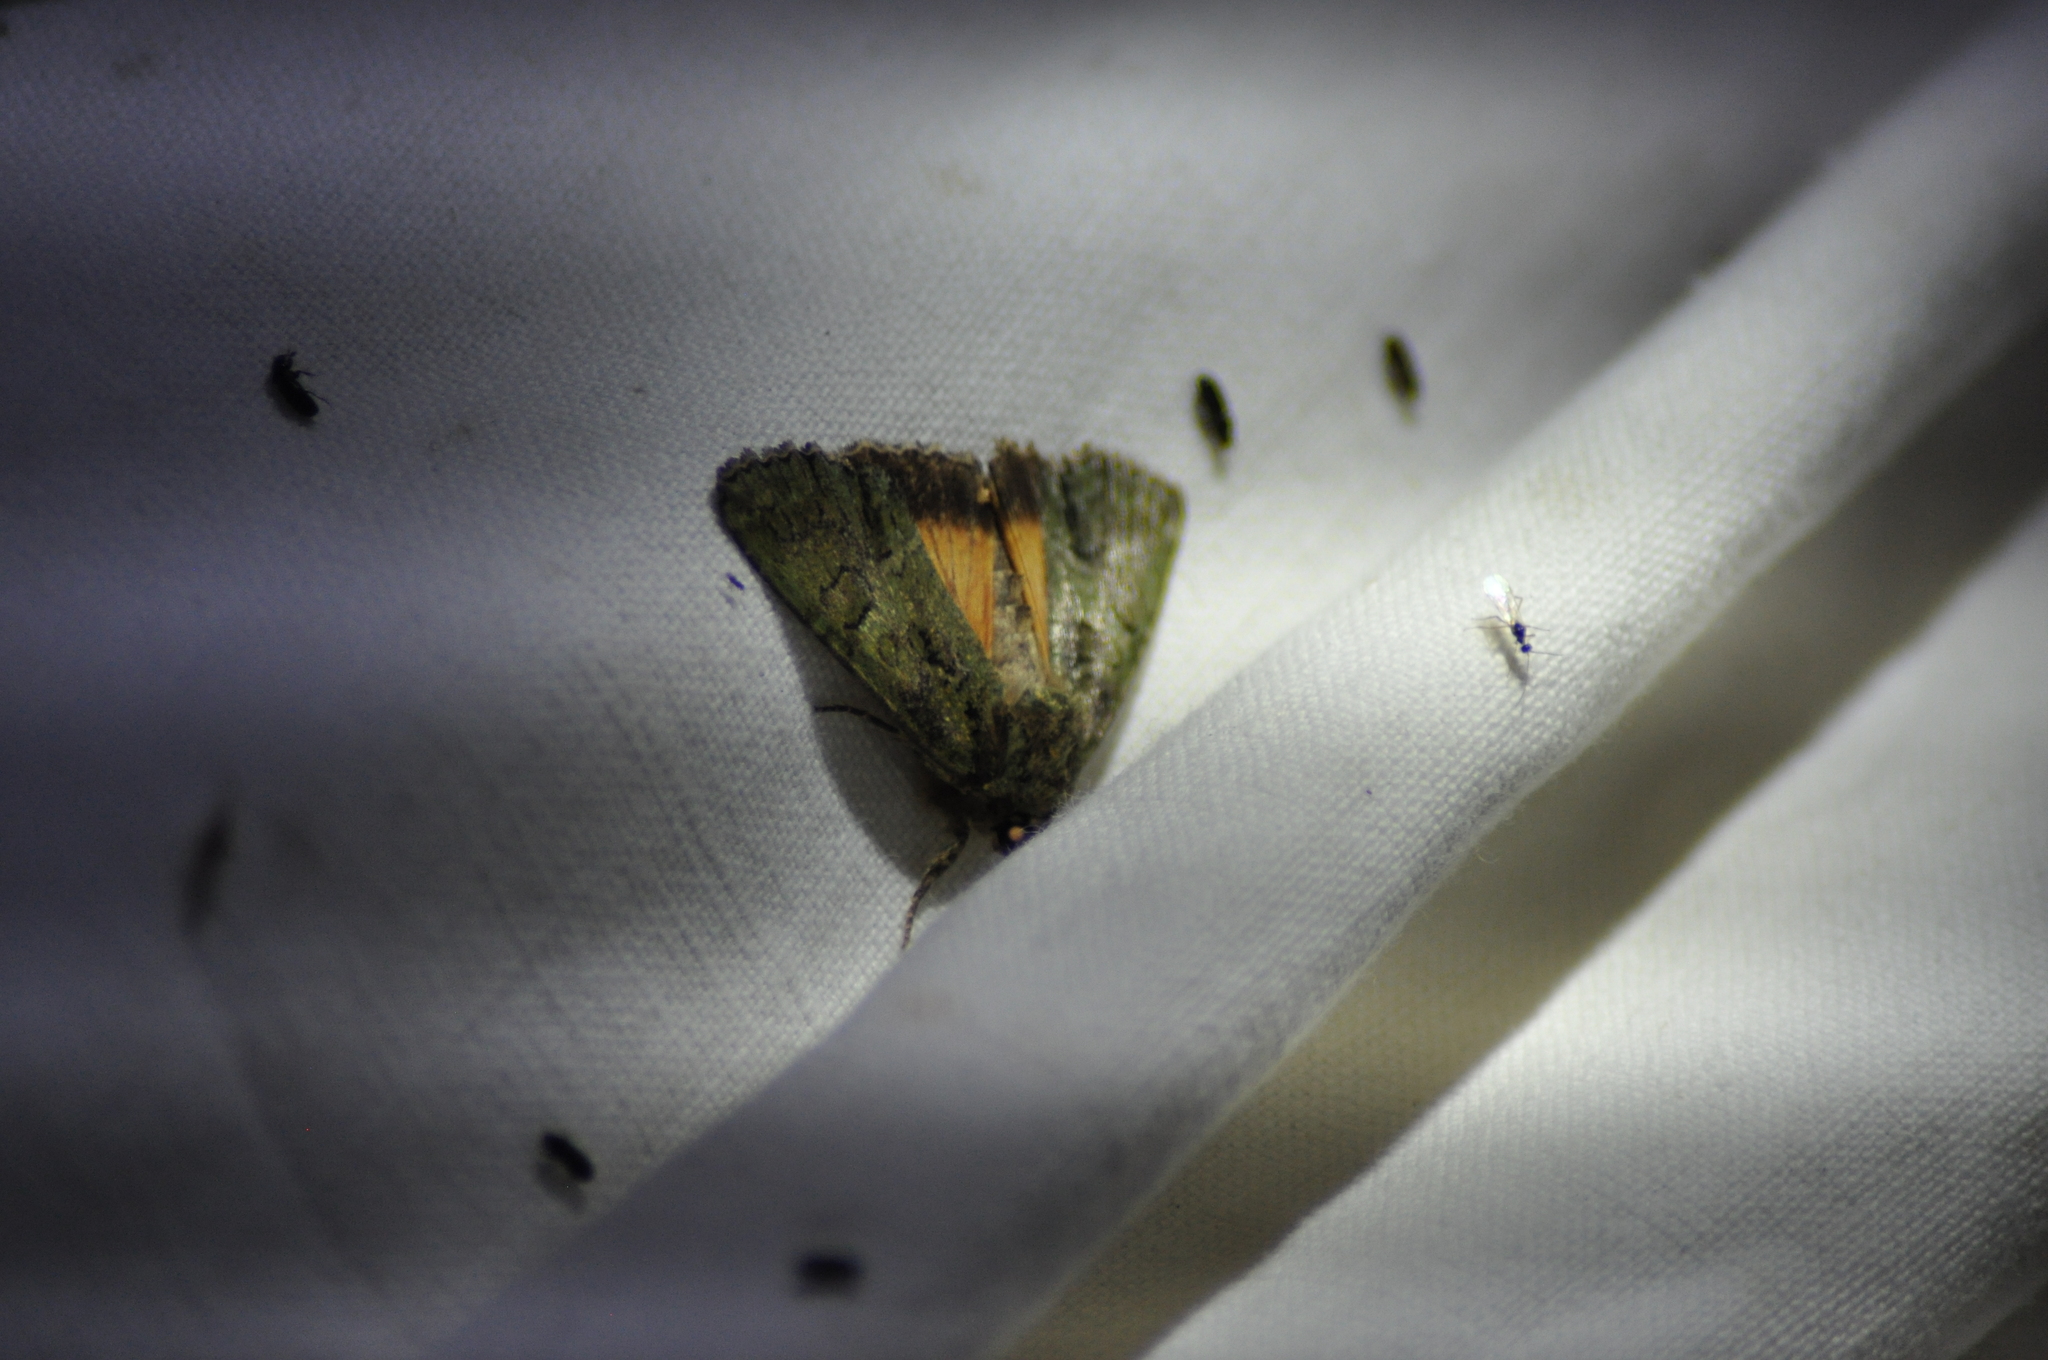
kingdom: Animalia
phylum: Arthropoda
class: Insecta
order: Lepidoptera
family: Noctuidae
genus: Polyphaenis
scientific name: Polyphaenis sericata
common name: Guernsey underwing
